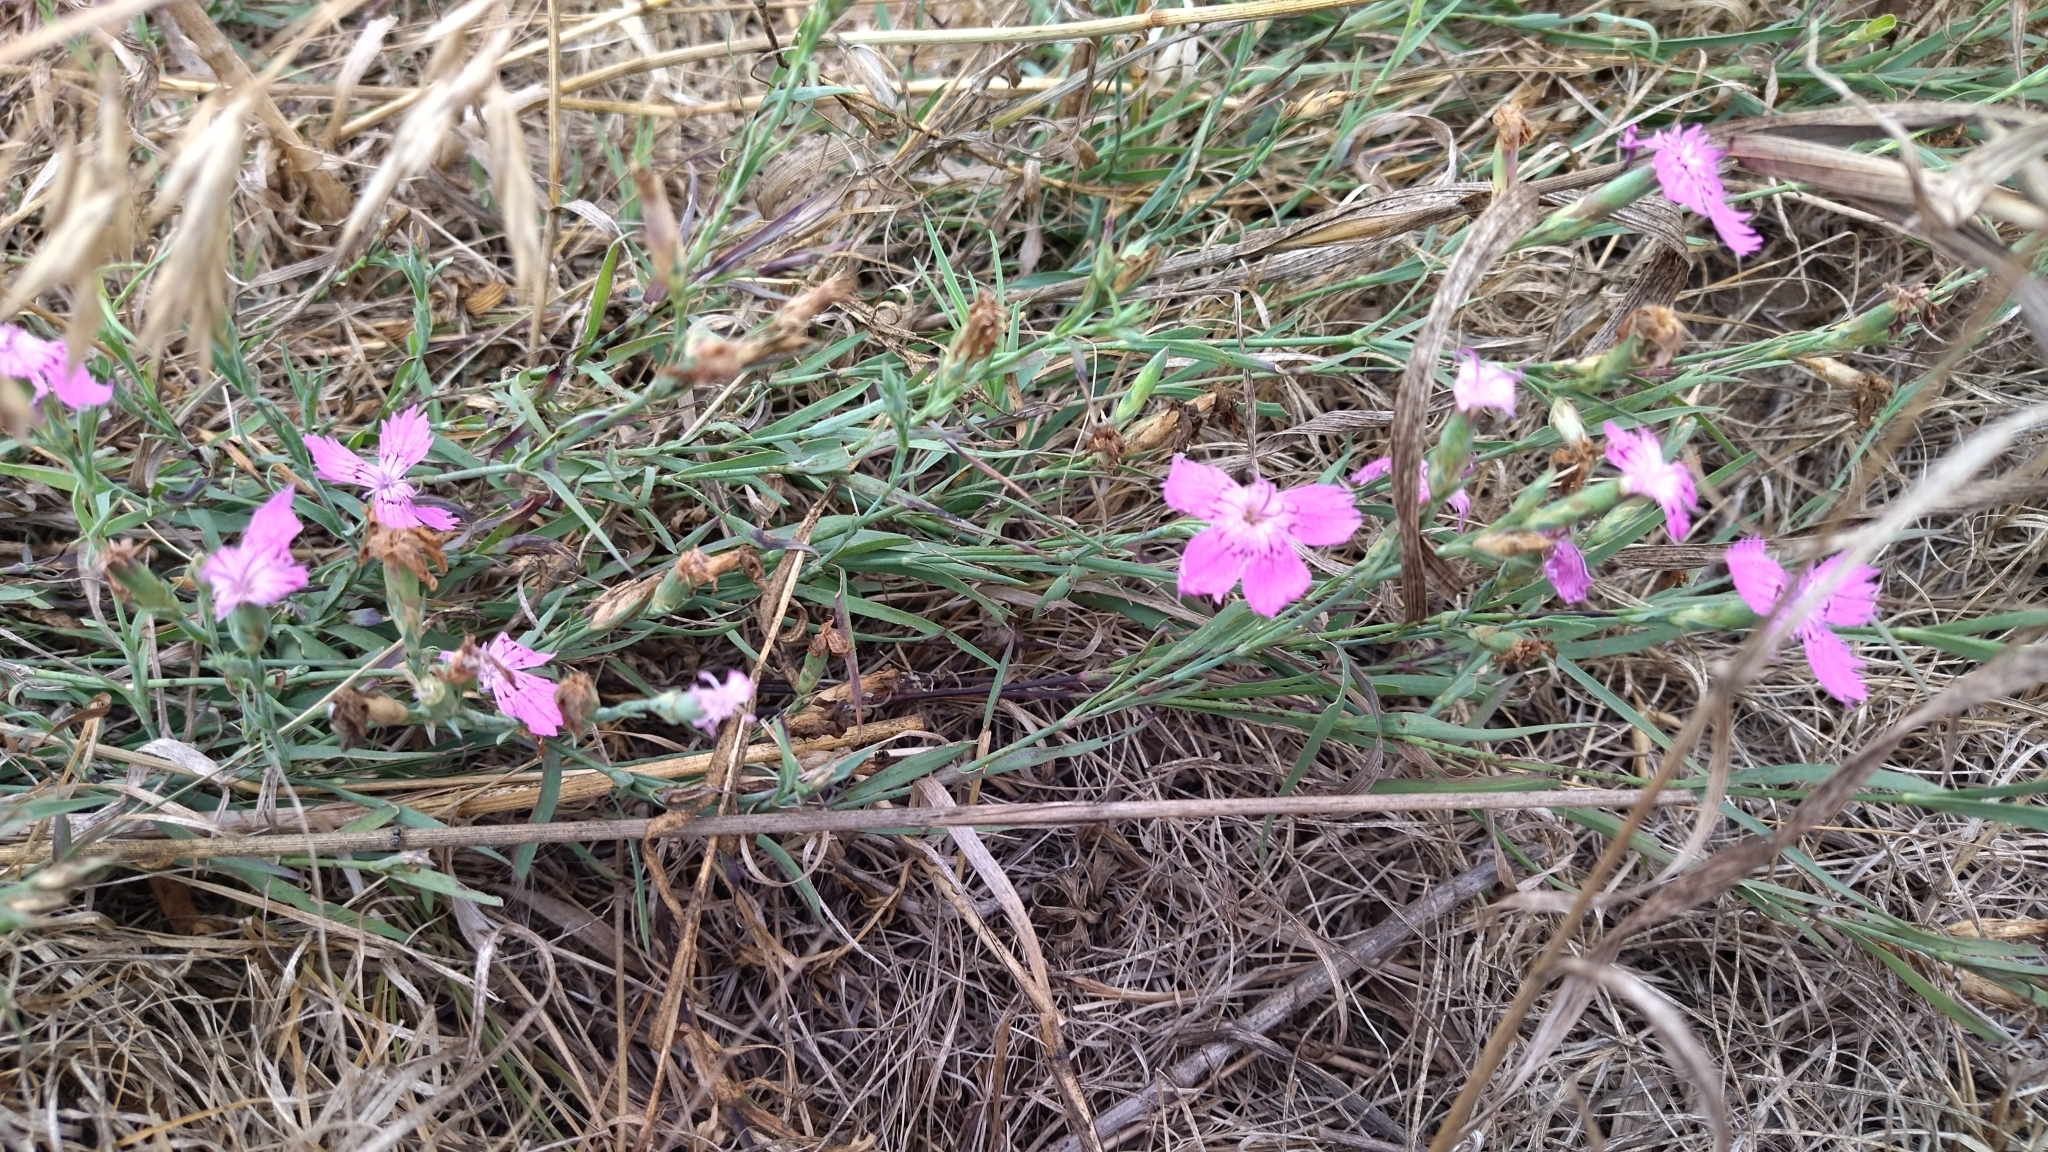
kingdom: Plantae
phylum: Tracheophyta
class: Magnoliopsida
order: Caryophyllales
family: Caryophyllaceae
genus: Dianthus
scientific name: Dianthus chinensis
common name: Rainbow pink
